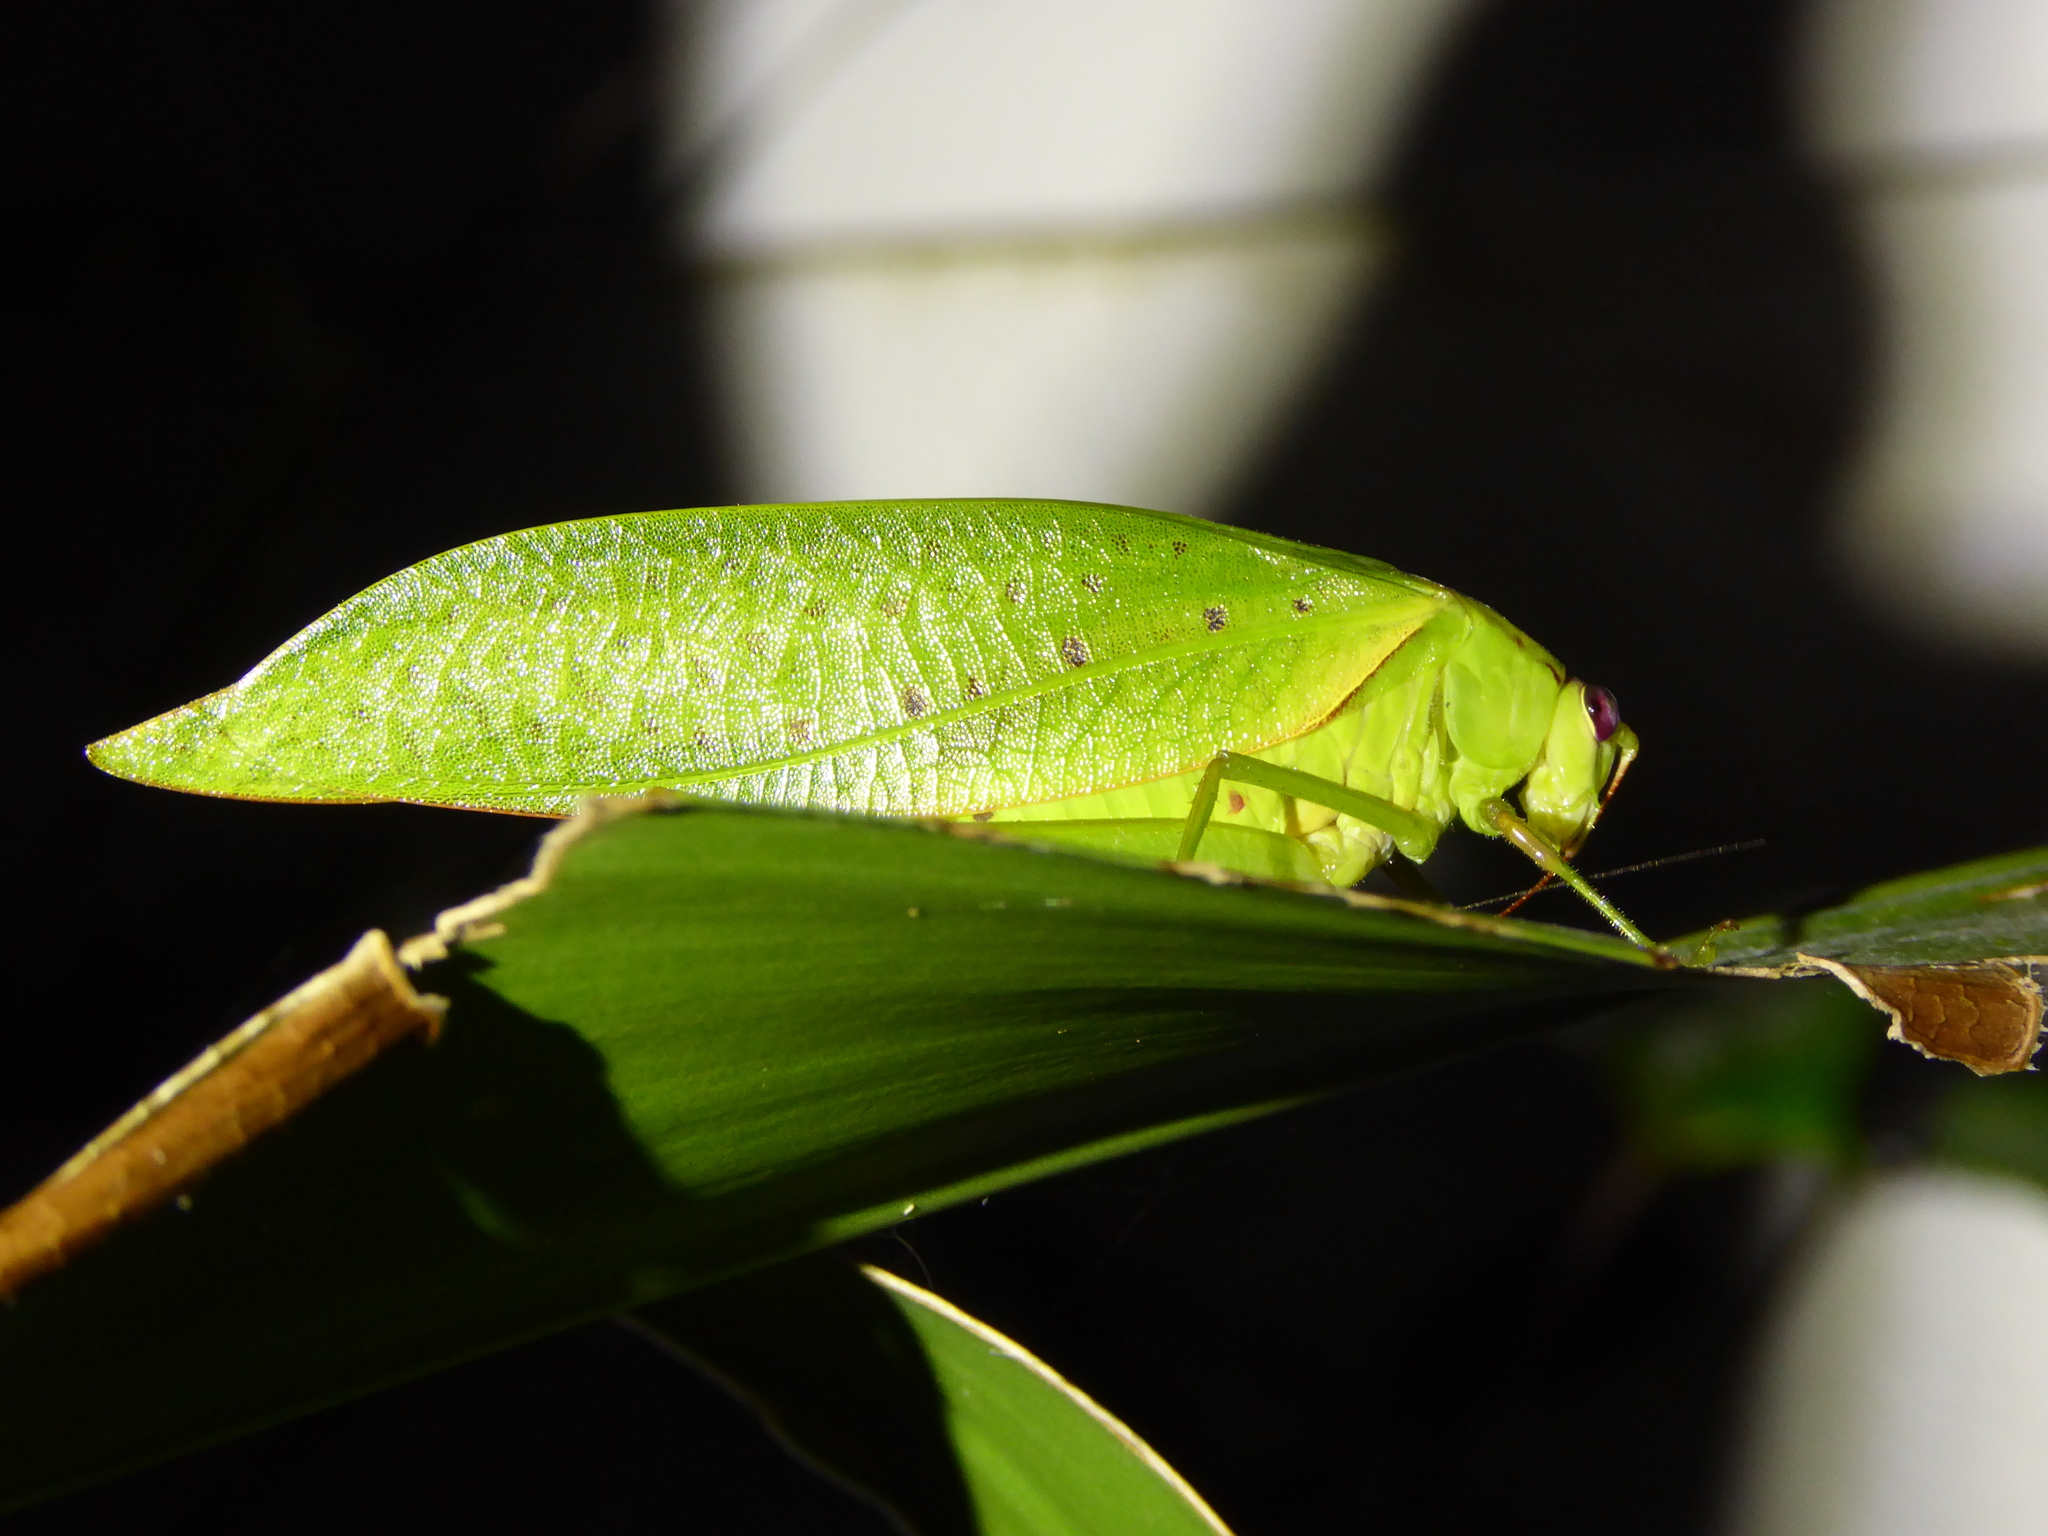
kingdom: Animalia
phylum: Arthropoda
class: Insecta
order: Orthoptera
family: Tettigoniidae
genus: Rectimarginalis
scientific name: Rectimarginalis fusco-spinosa
